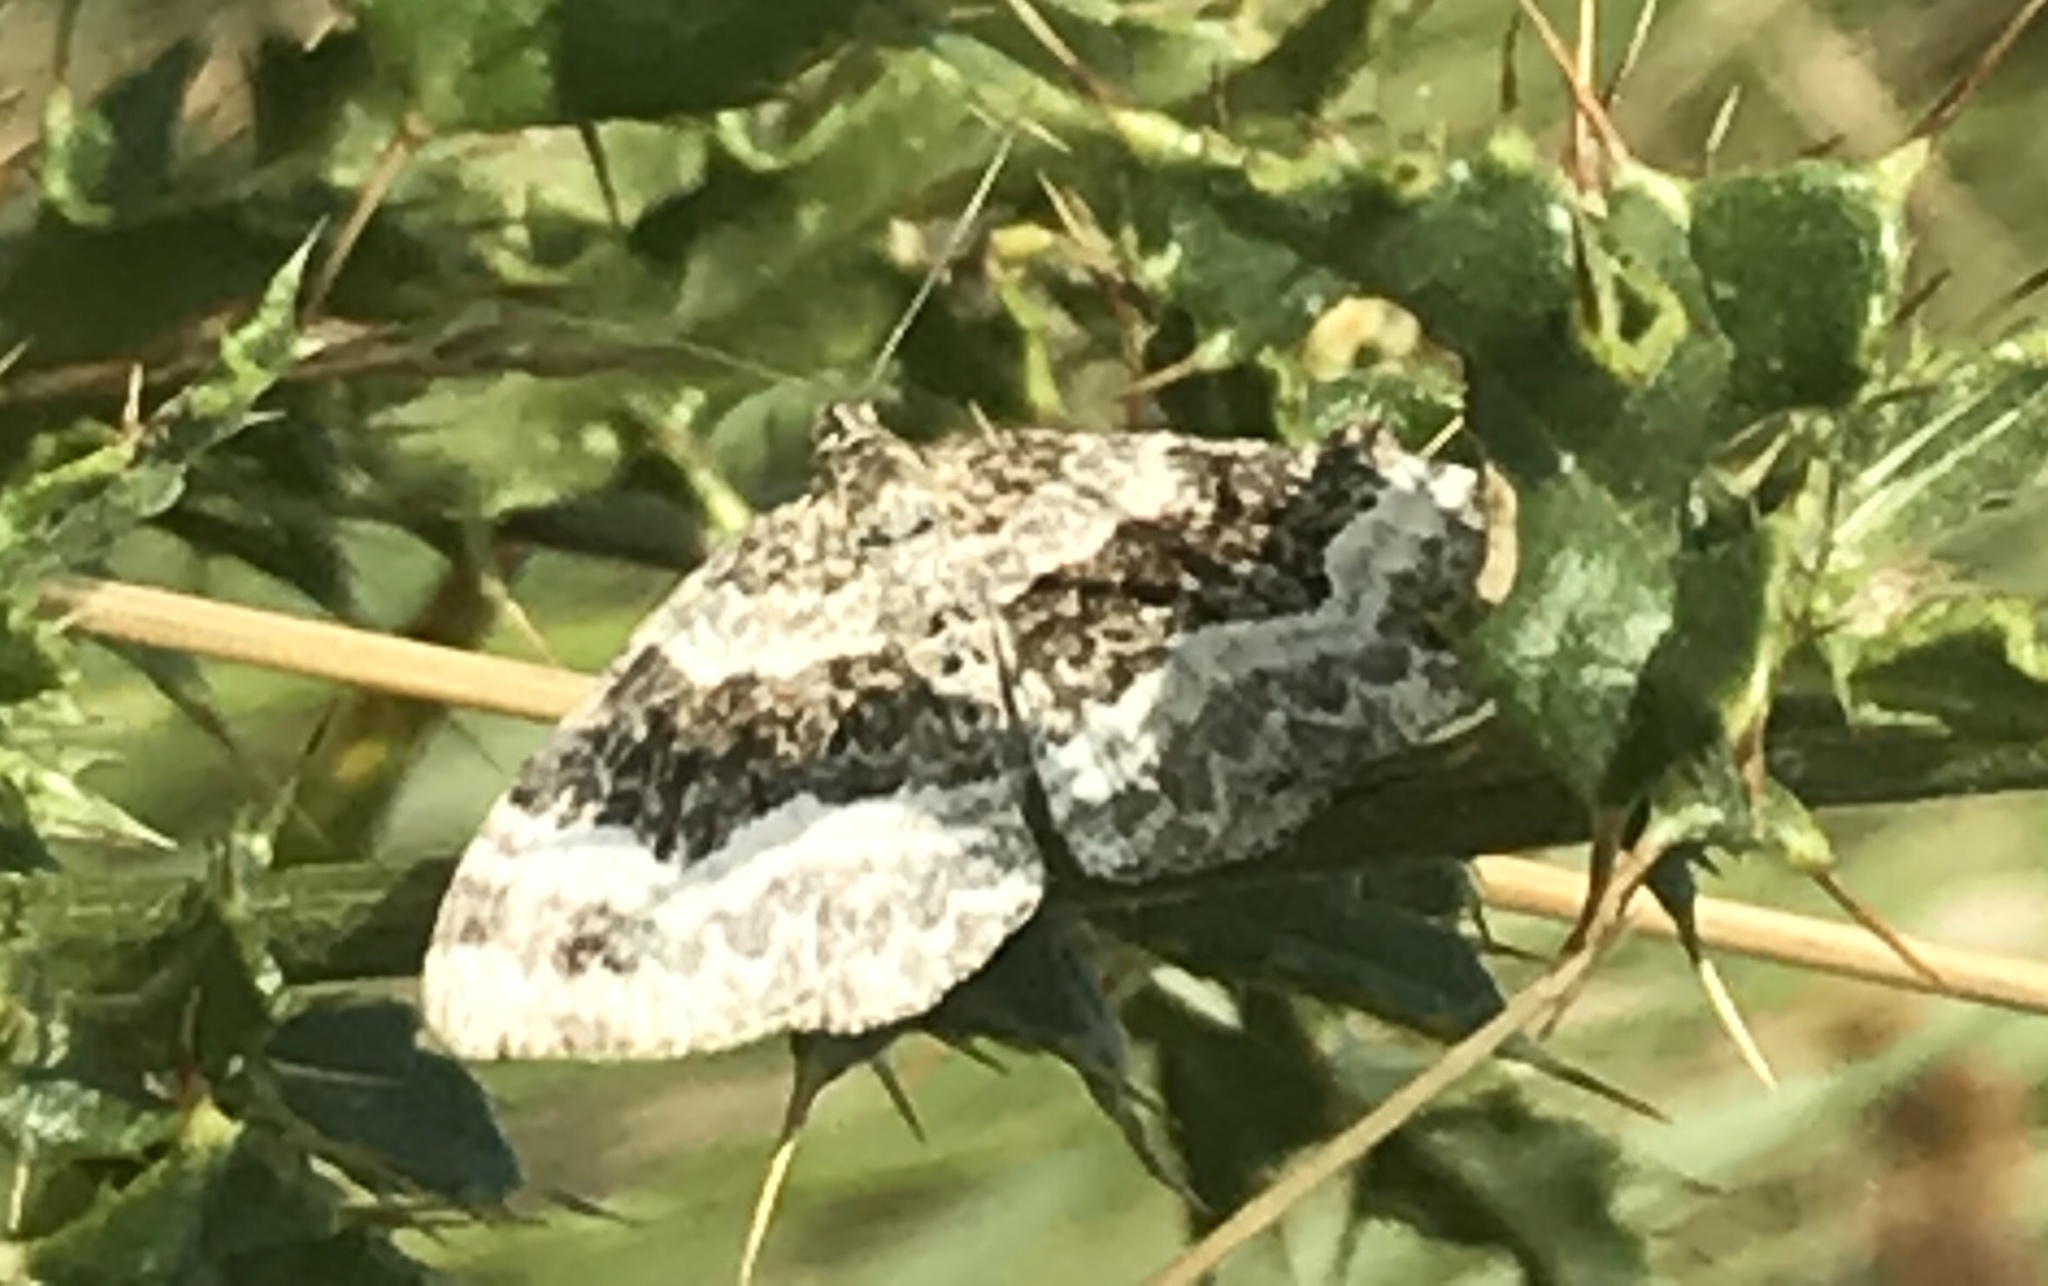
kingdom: Animalia
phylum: Arthropoda
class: Insecta
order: Lepidoptera
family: Geometridae
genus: Epirrhoe
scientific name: Epirrhoe alternata
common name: Common carpet
